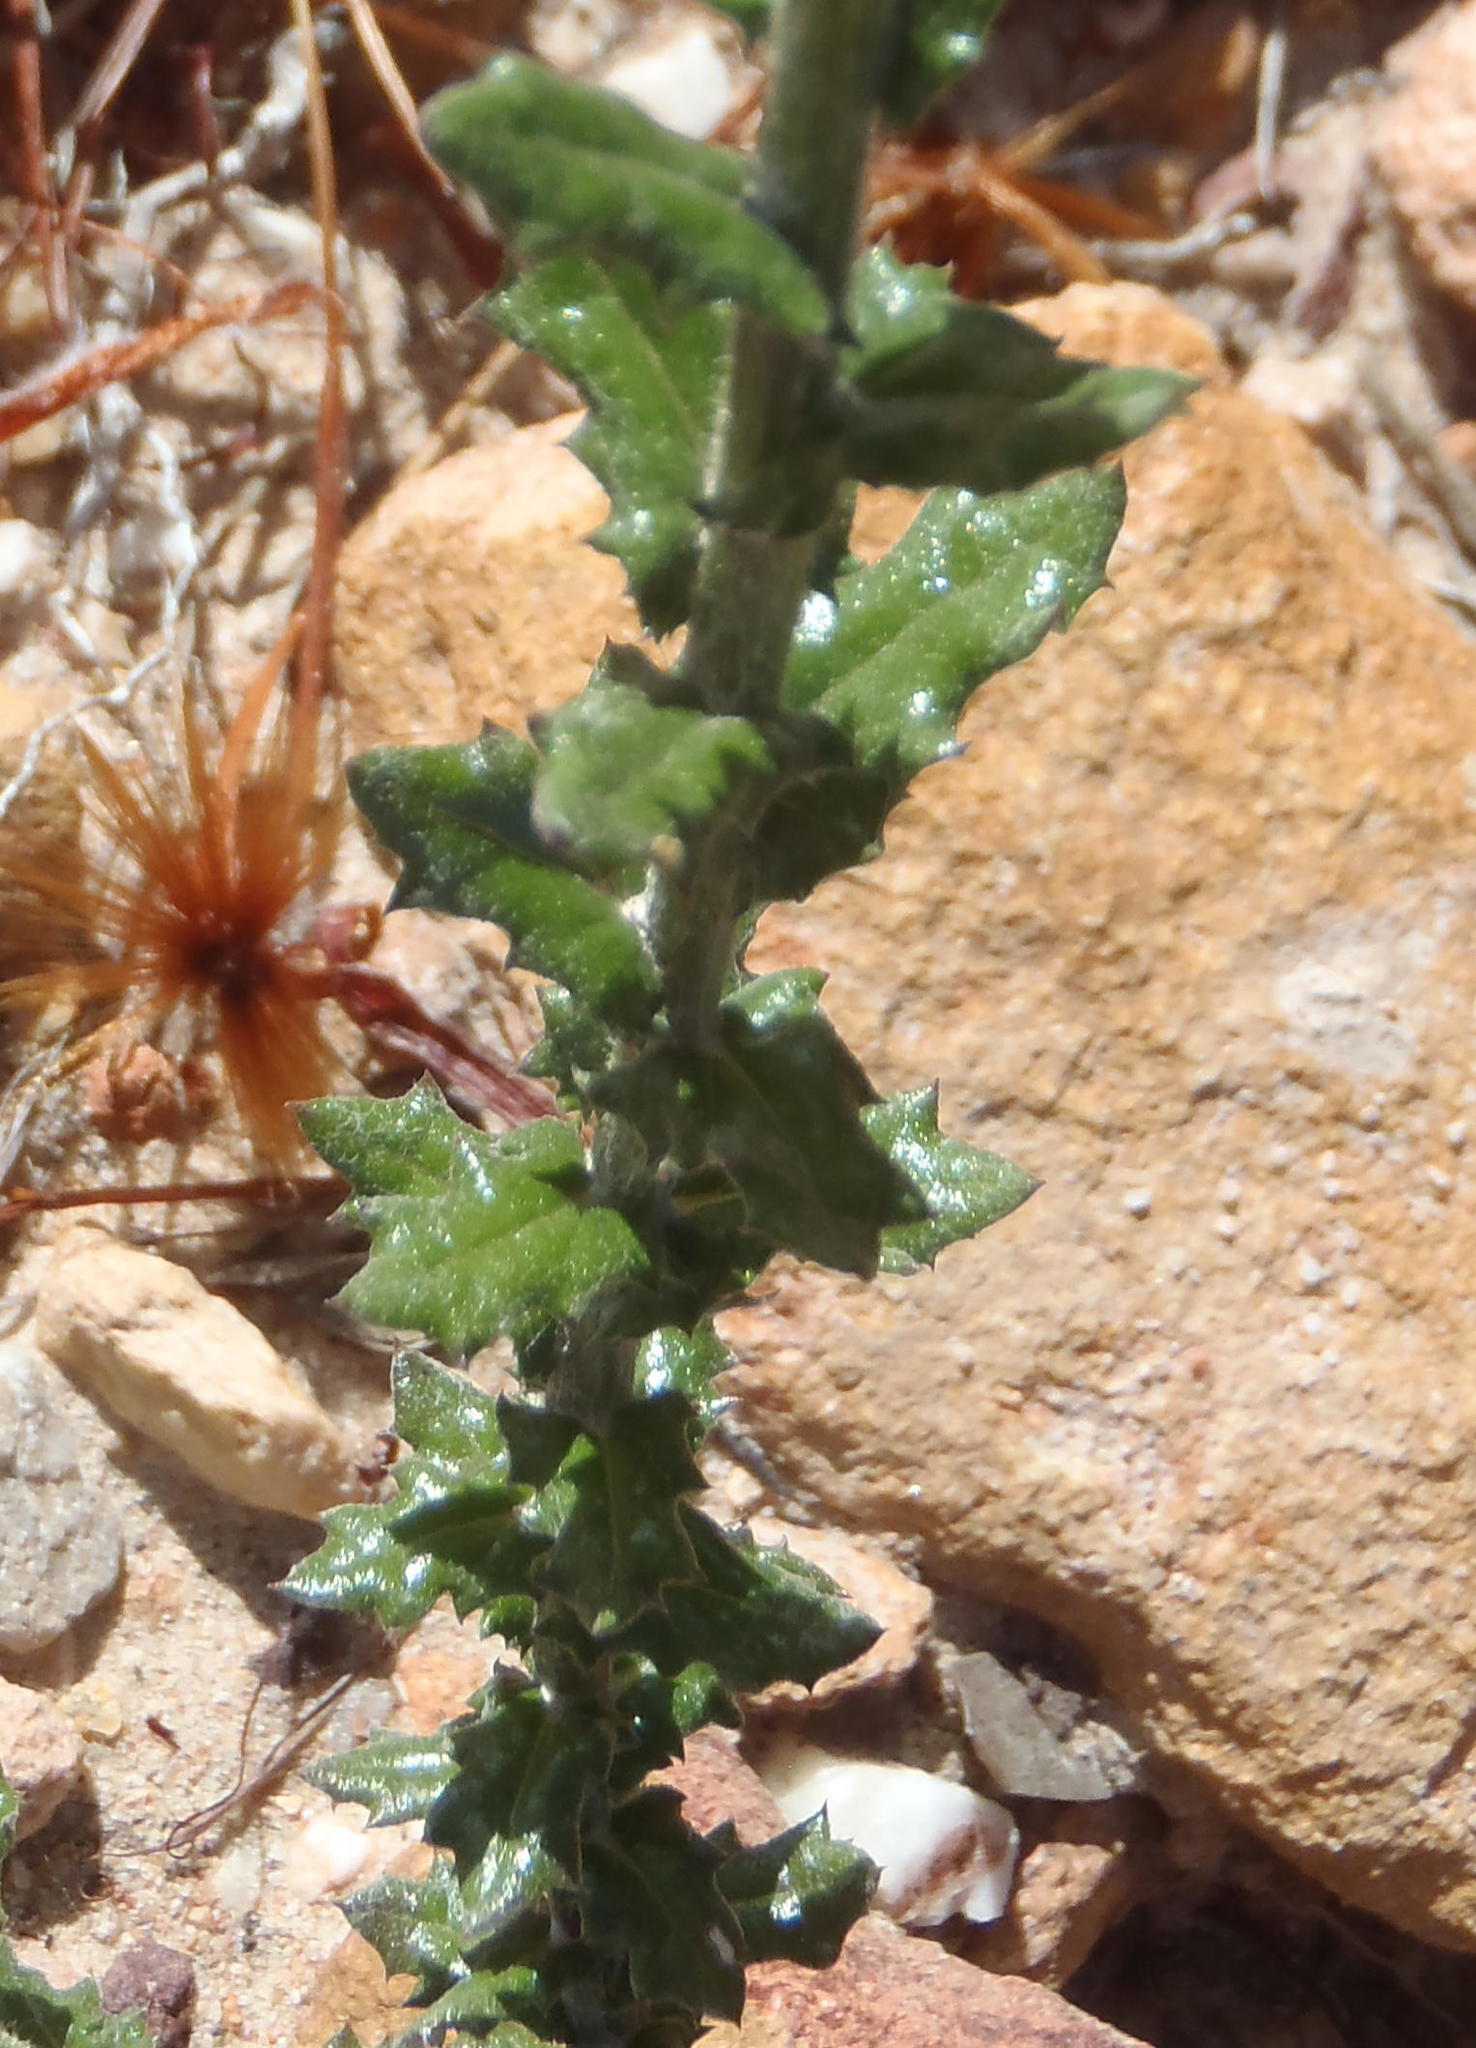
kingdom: Plantae
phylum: Tracheophyta
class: Magnoliopsida
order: Asterales
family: Asteraceae
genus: Senecio
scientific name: Senecio ilicifolius
